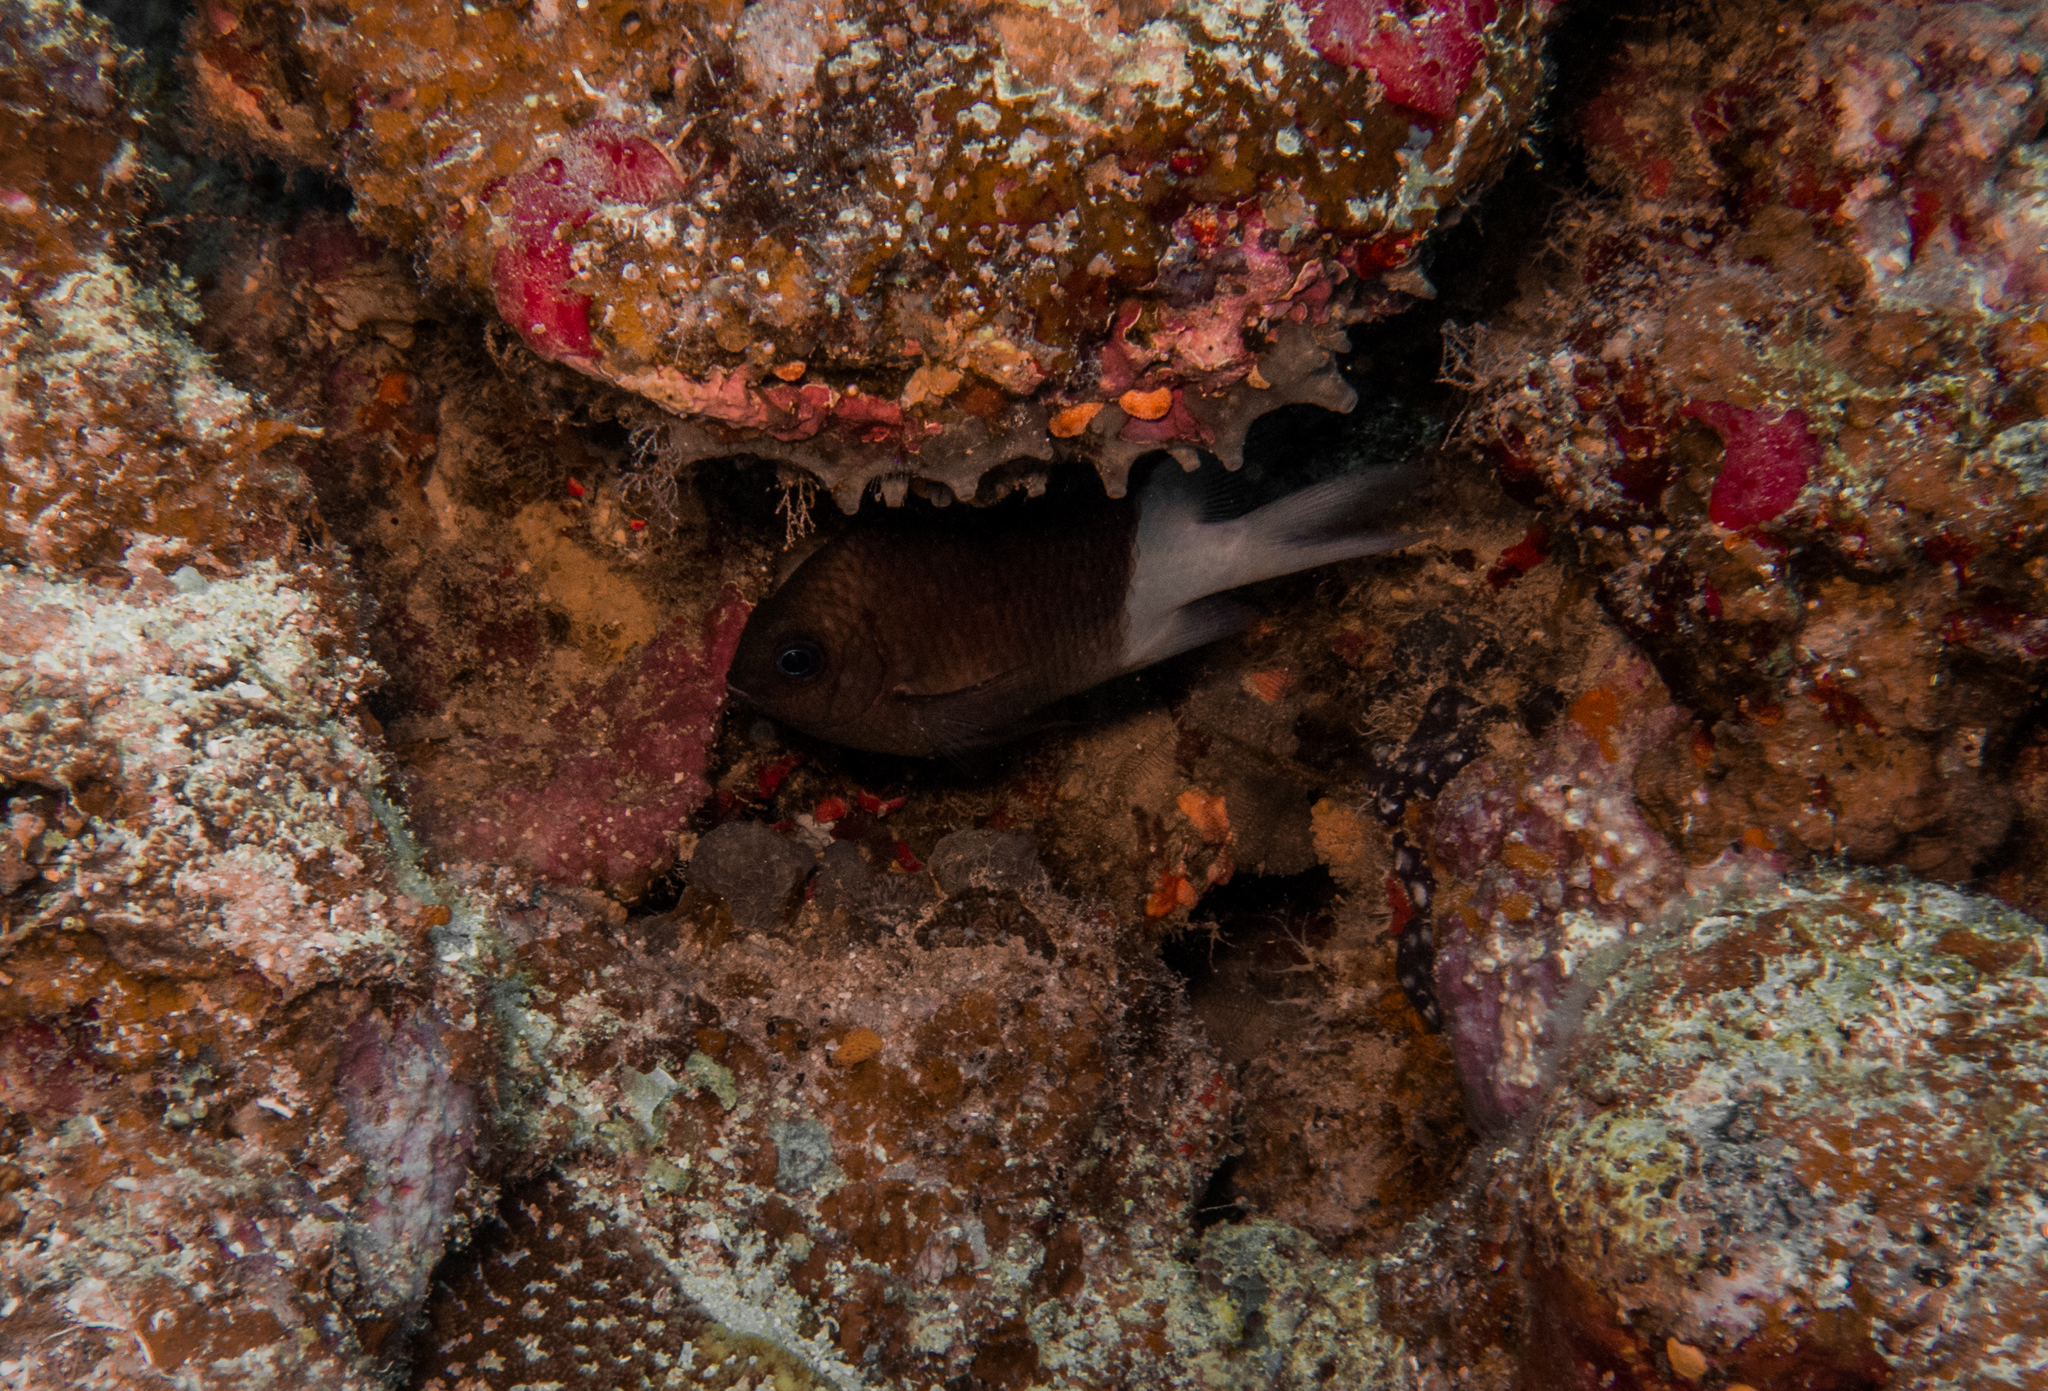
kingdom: Animalia
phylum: Chordata
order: Perciformes
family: Pomacentridae
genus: Acanthochromis
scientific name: Acanthochromis polyacanthus
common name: Spiny chromis
